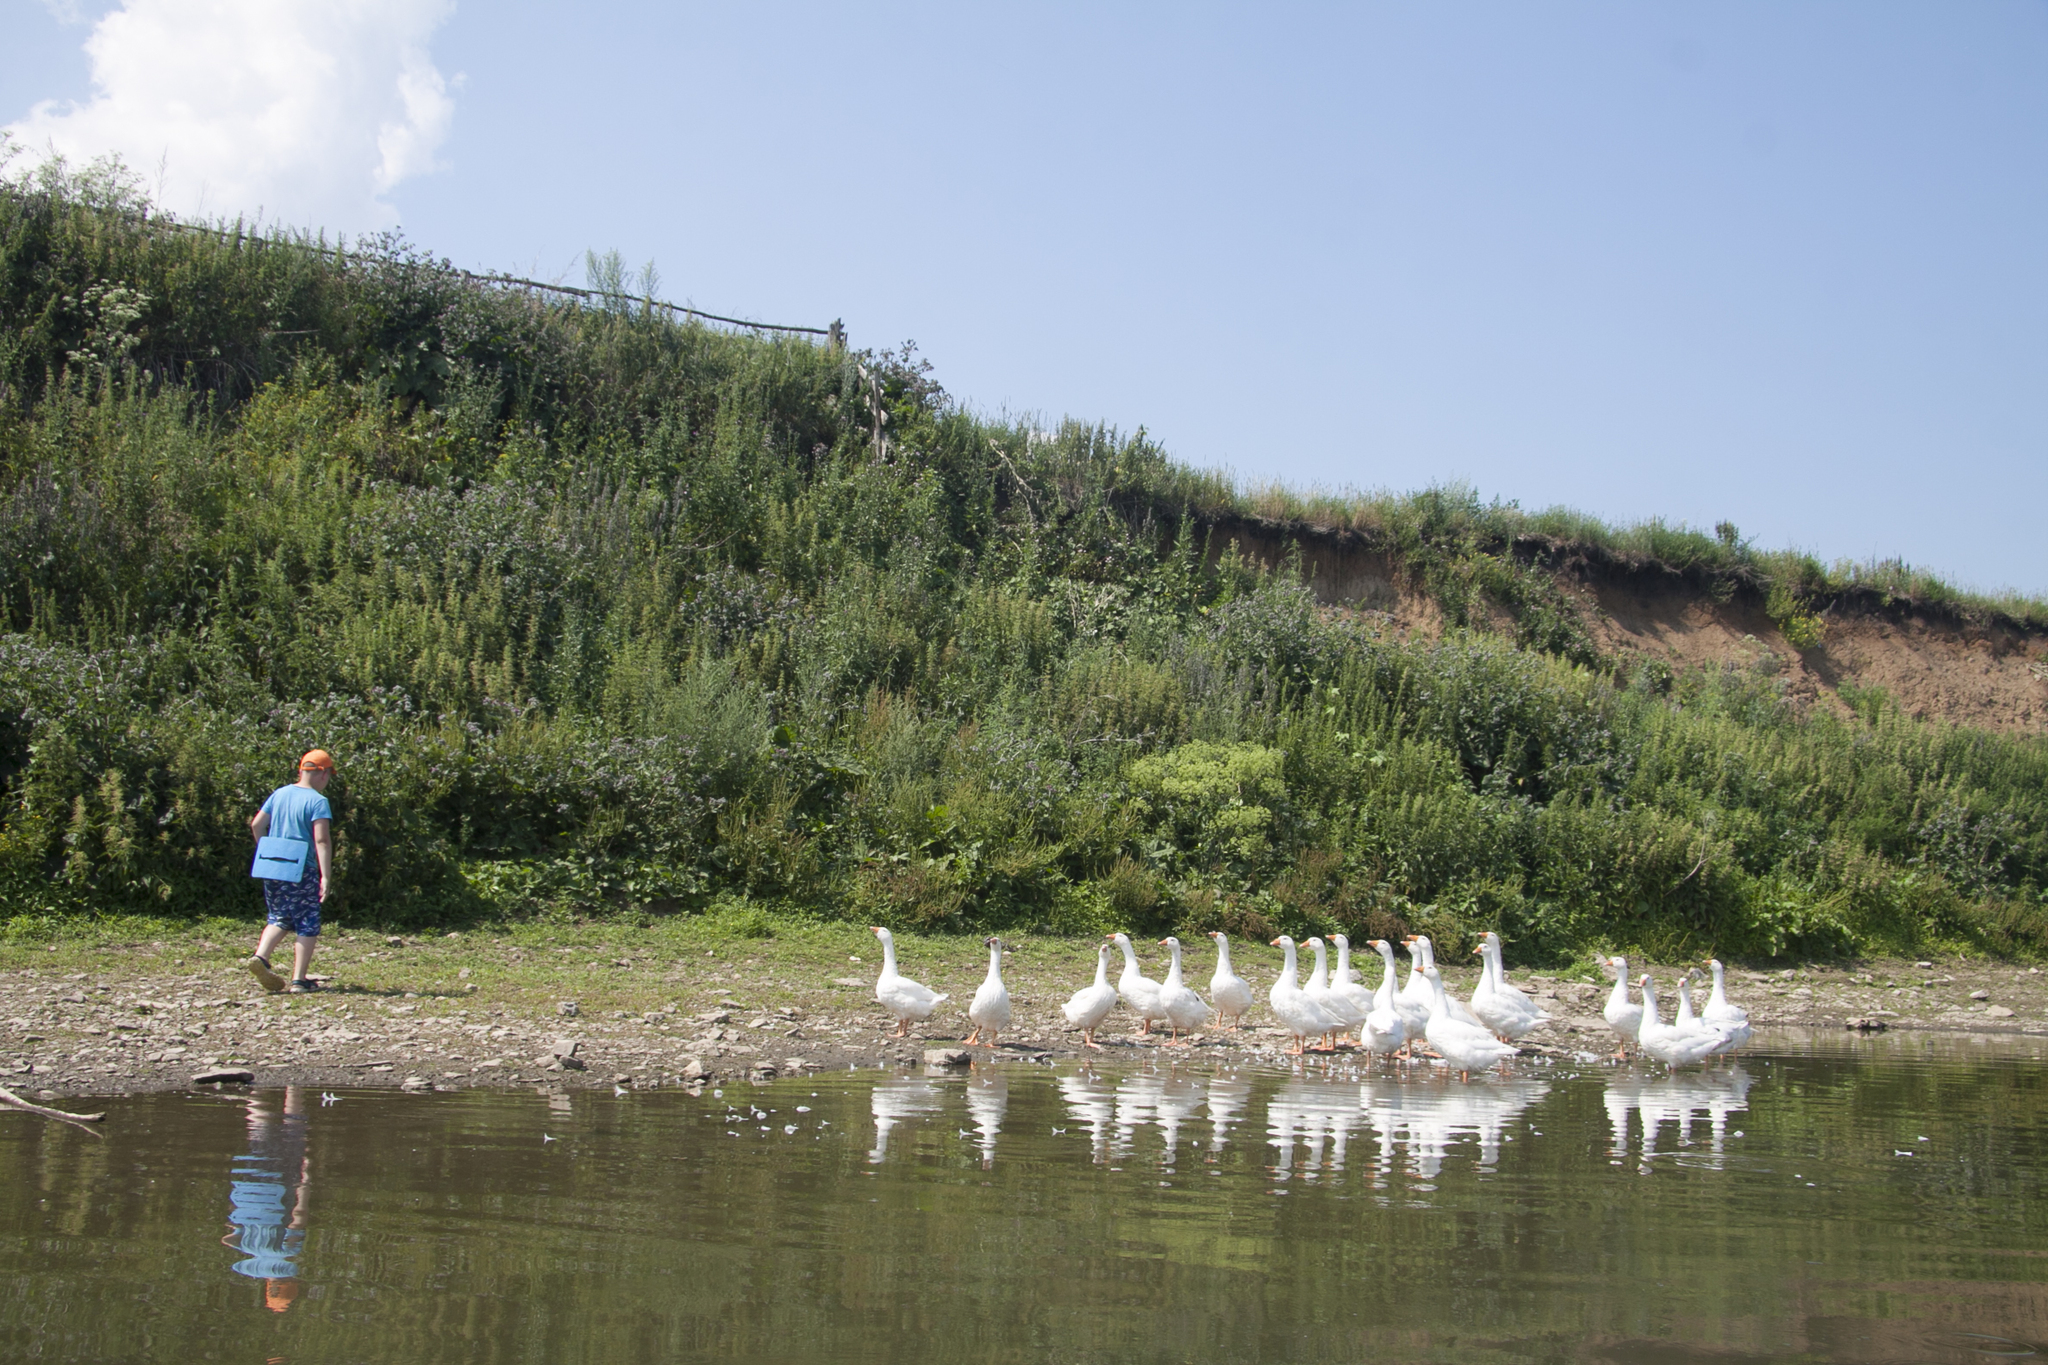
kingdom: Animalia
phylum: Chordata
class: Aves
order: Anseriformes
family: Anatidae
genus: Anser
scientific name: Anser anser
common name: Greylag goose
